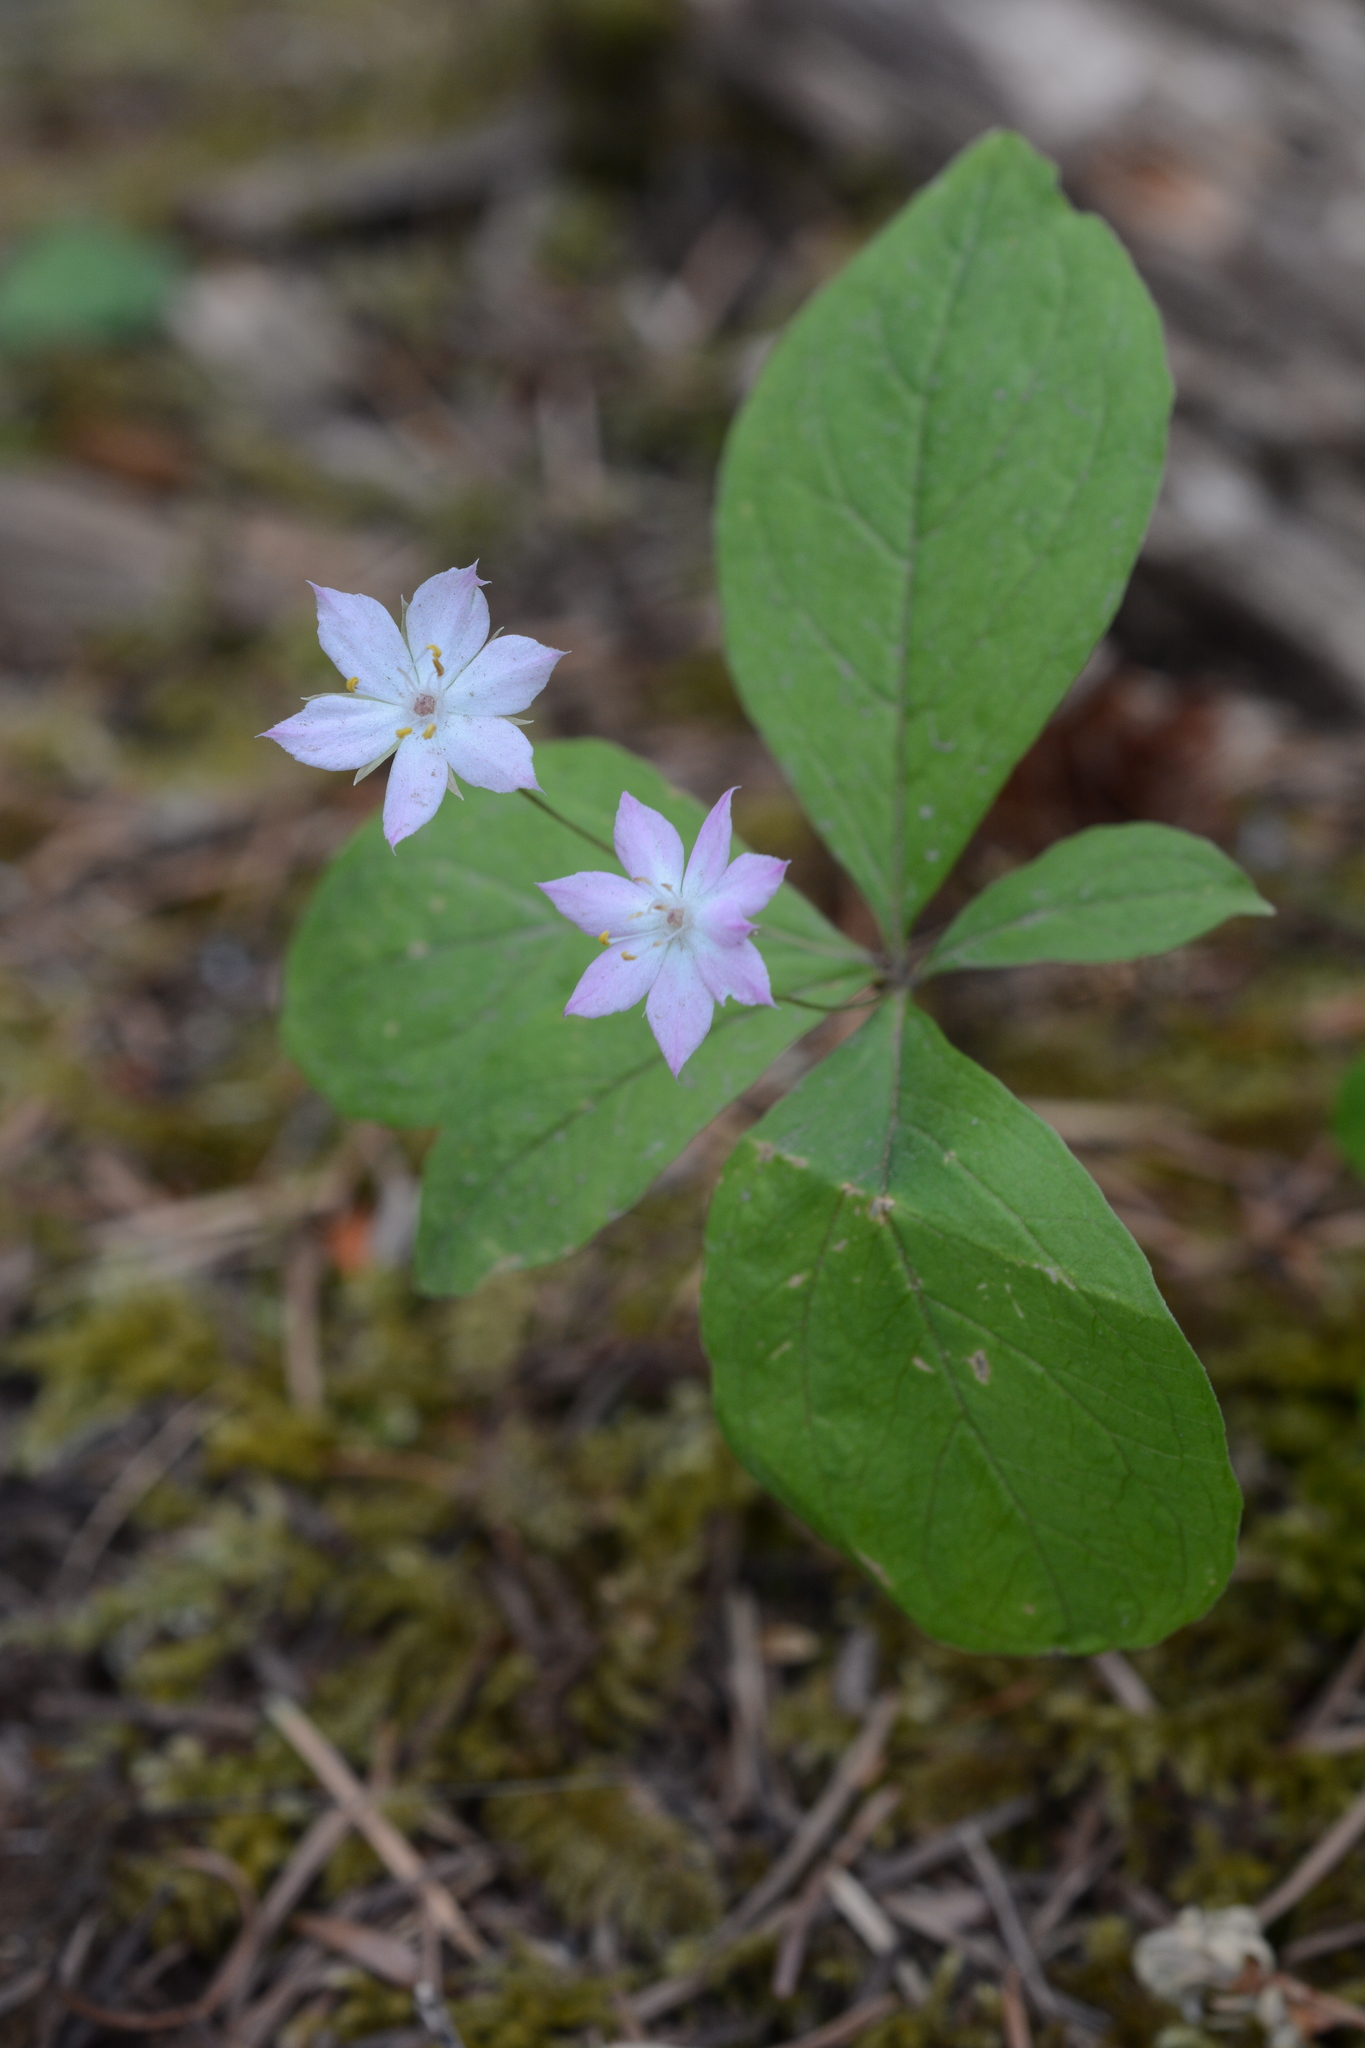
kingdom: Plantae
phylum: Tracheophyta
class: Magnoliopsida
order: Ericales
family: Primulaceae
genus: Lysimachia
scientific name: Lysimachia latifolia
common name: Pacific starflower
